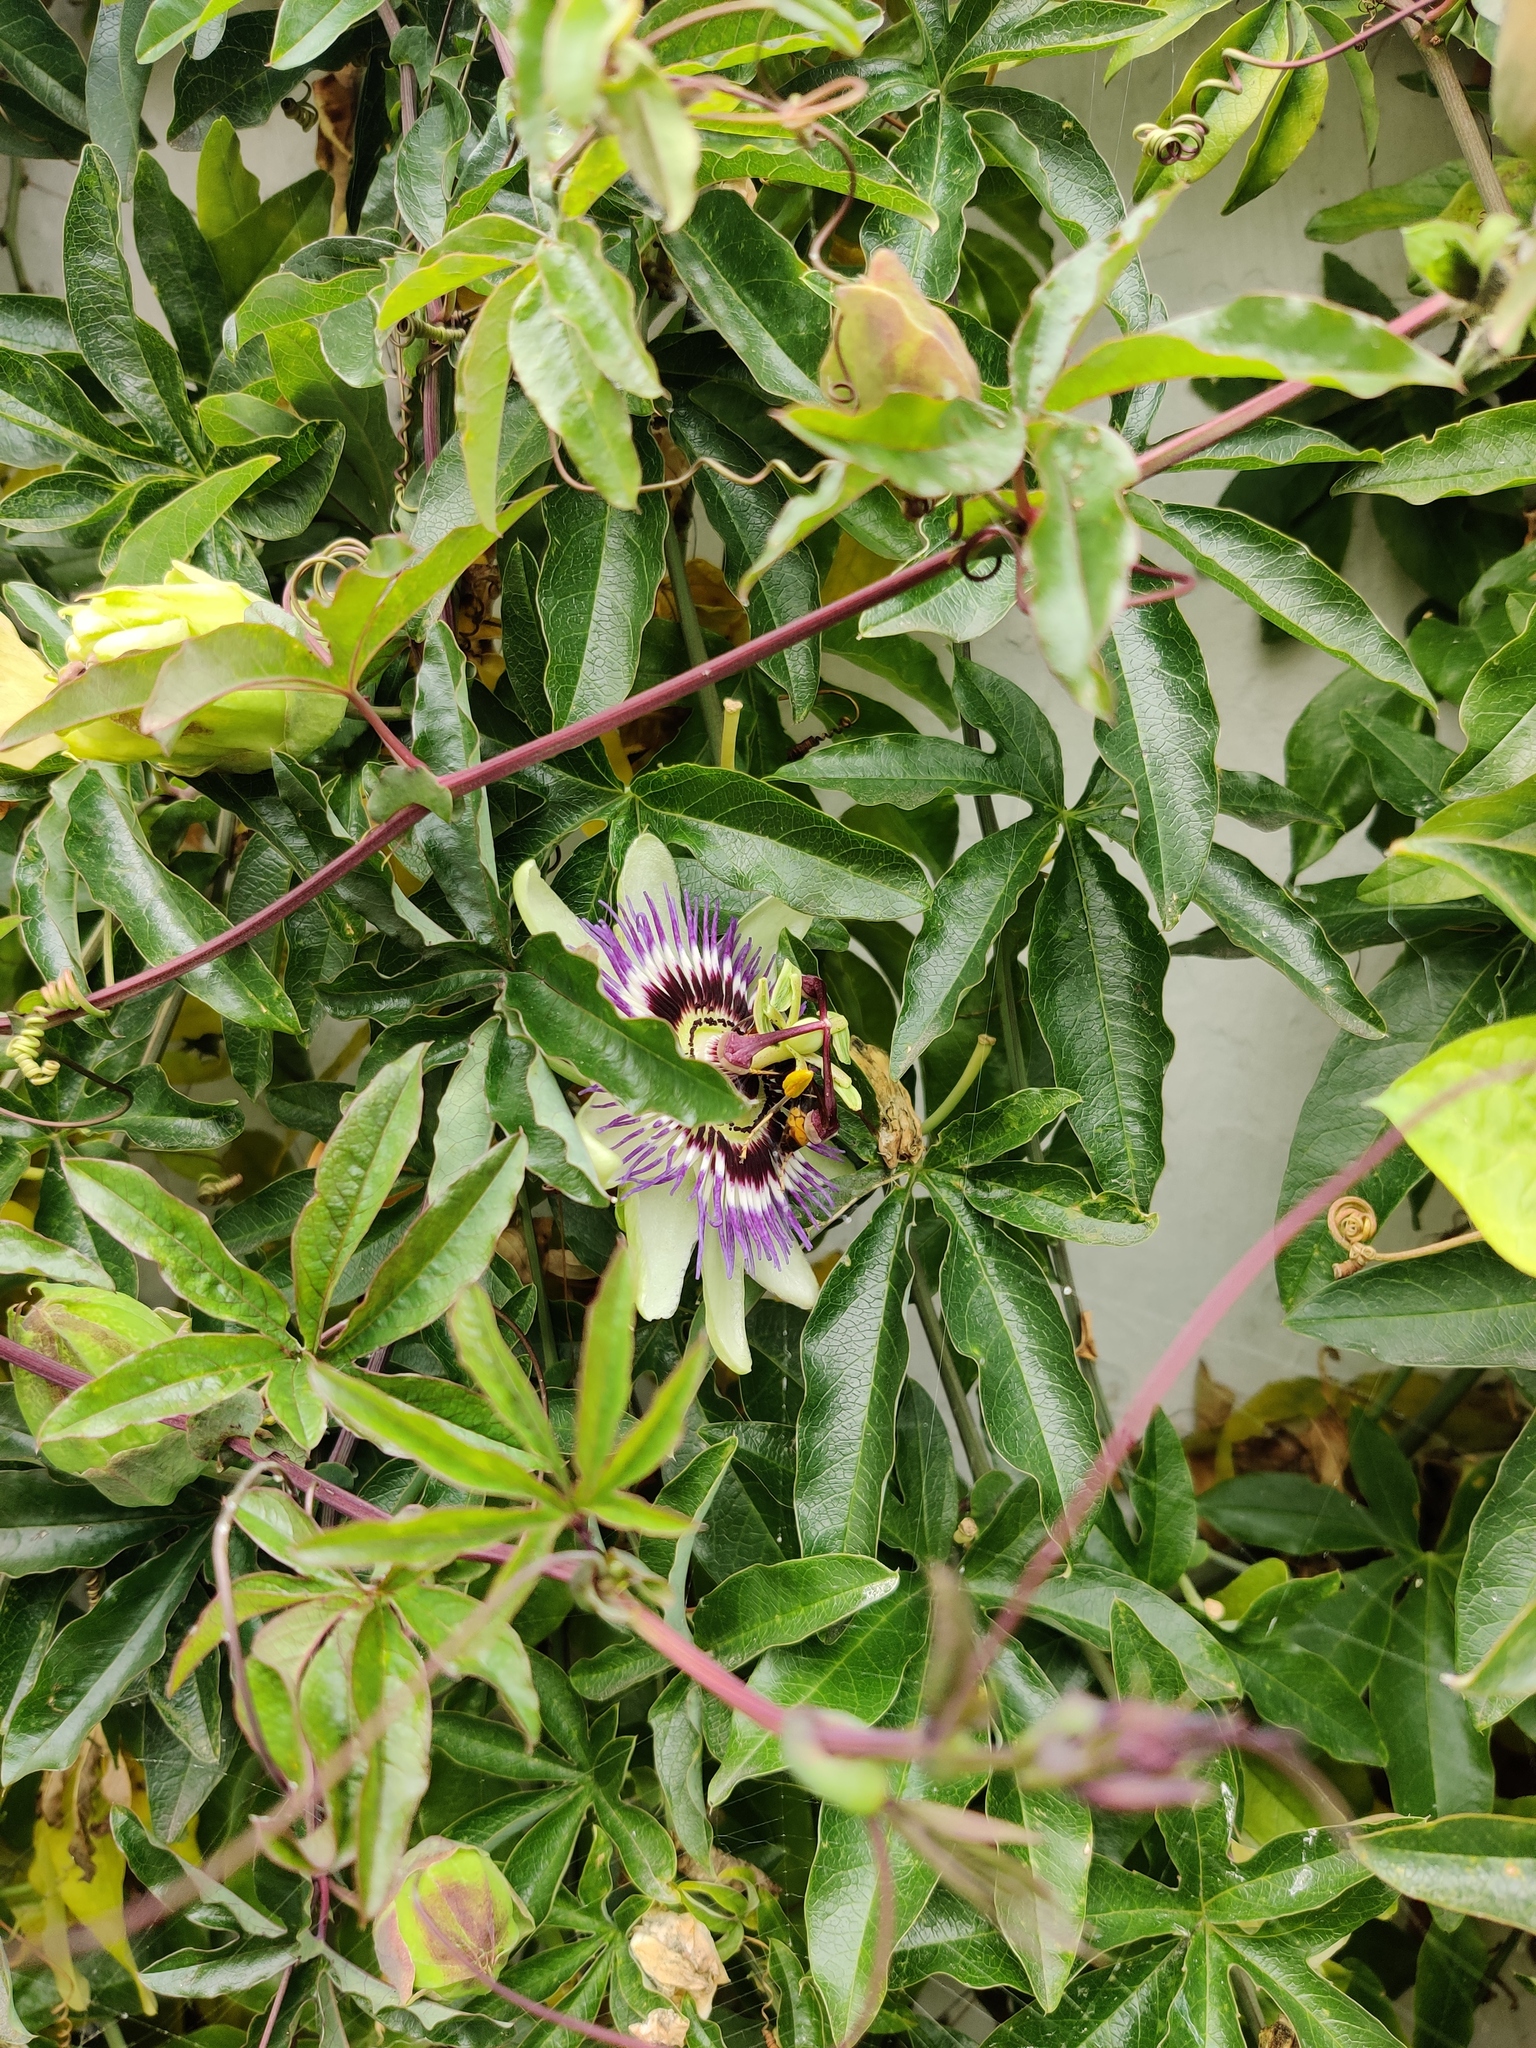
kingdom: Animalia
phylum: Arthropoda
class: Insecta
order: Hymenoptera
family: Vespidae
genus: Vespa
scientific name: Vespa velutina
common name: Asian hornet
